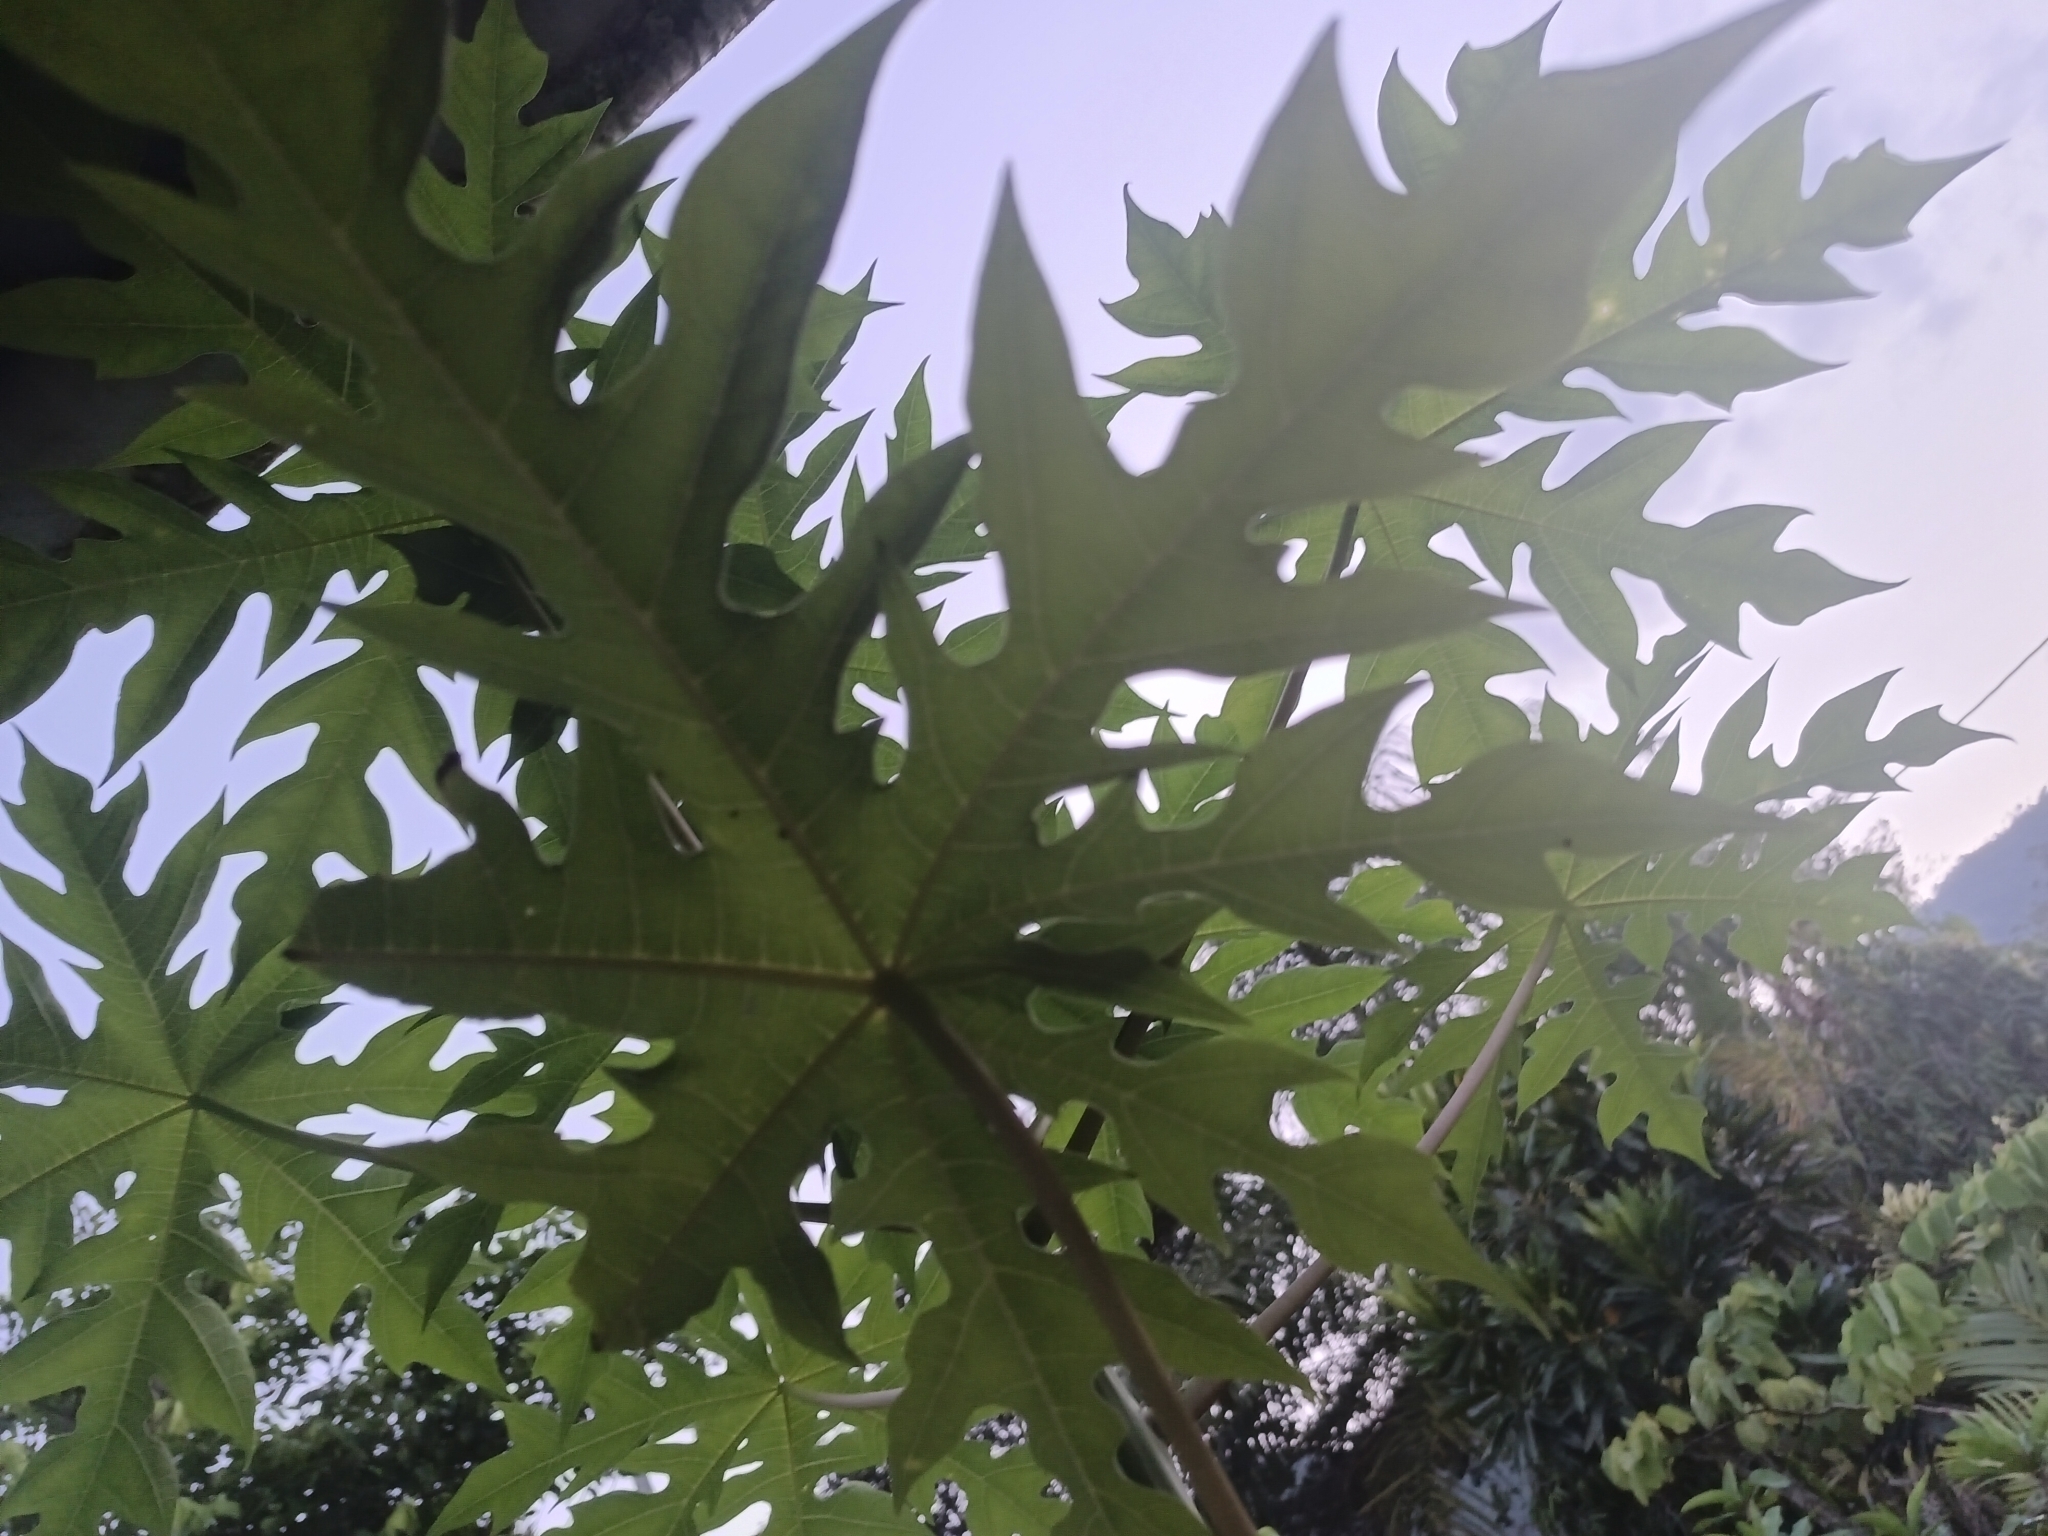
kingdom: Plantae
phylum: Tracheophyta
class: Magnoliopsida
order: Brassicales
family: Caricaceae
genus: Carica
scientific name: Carica papaya
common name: Papaya
